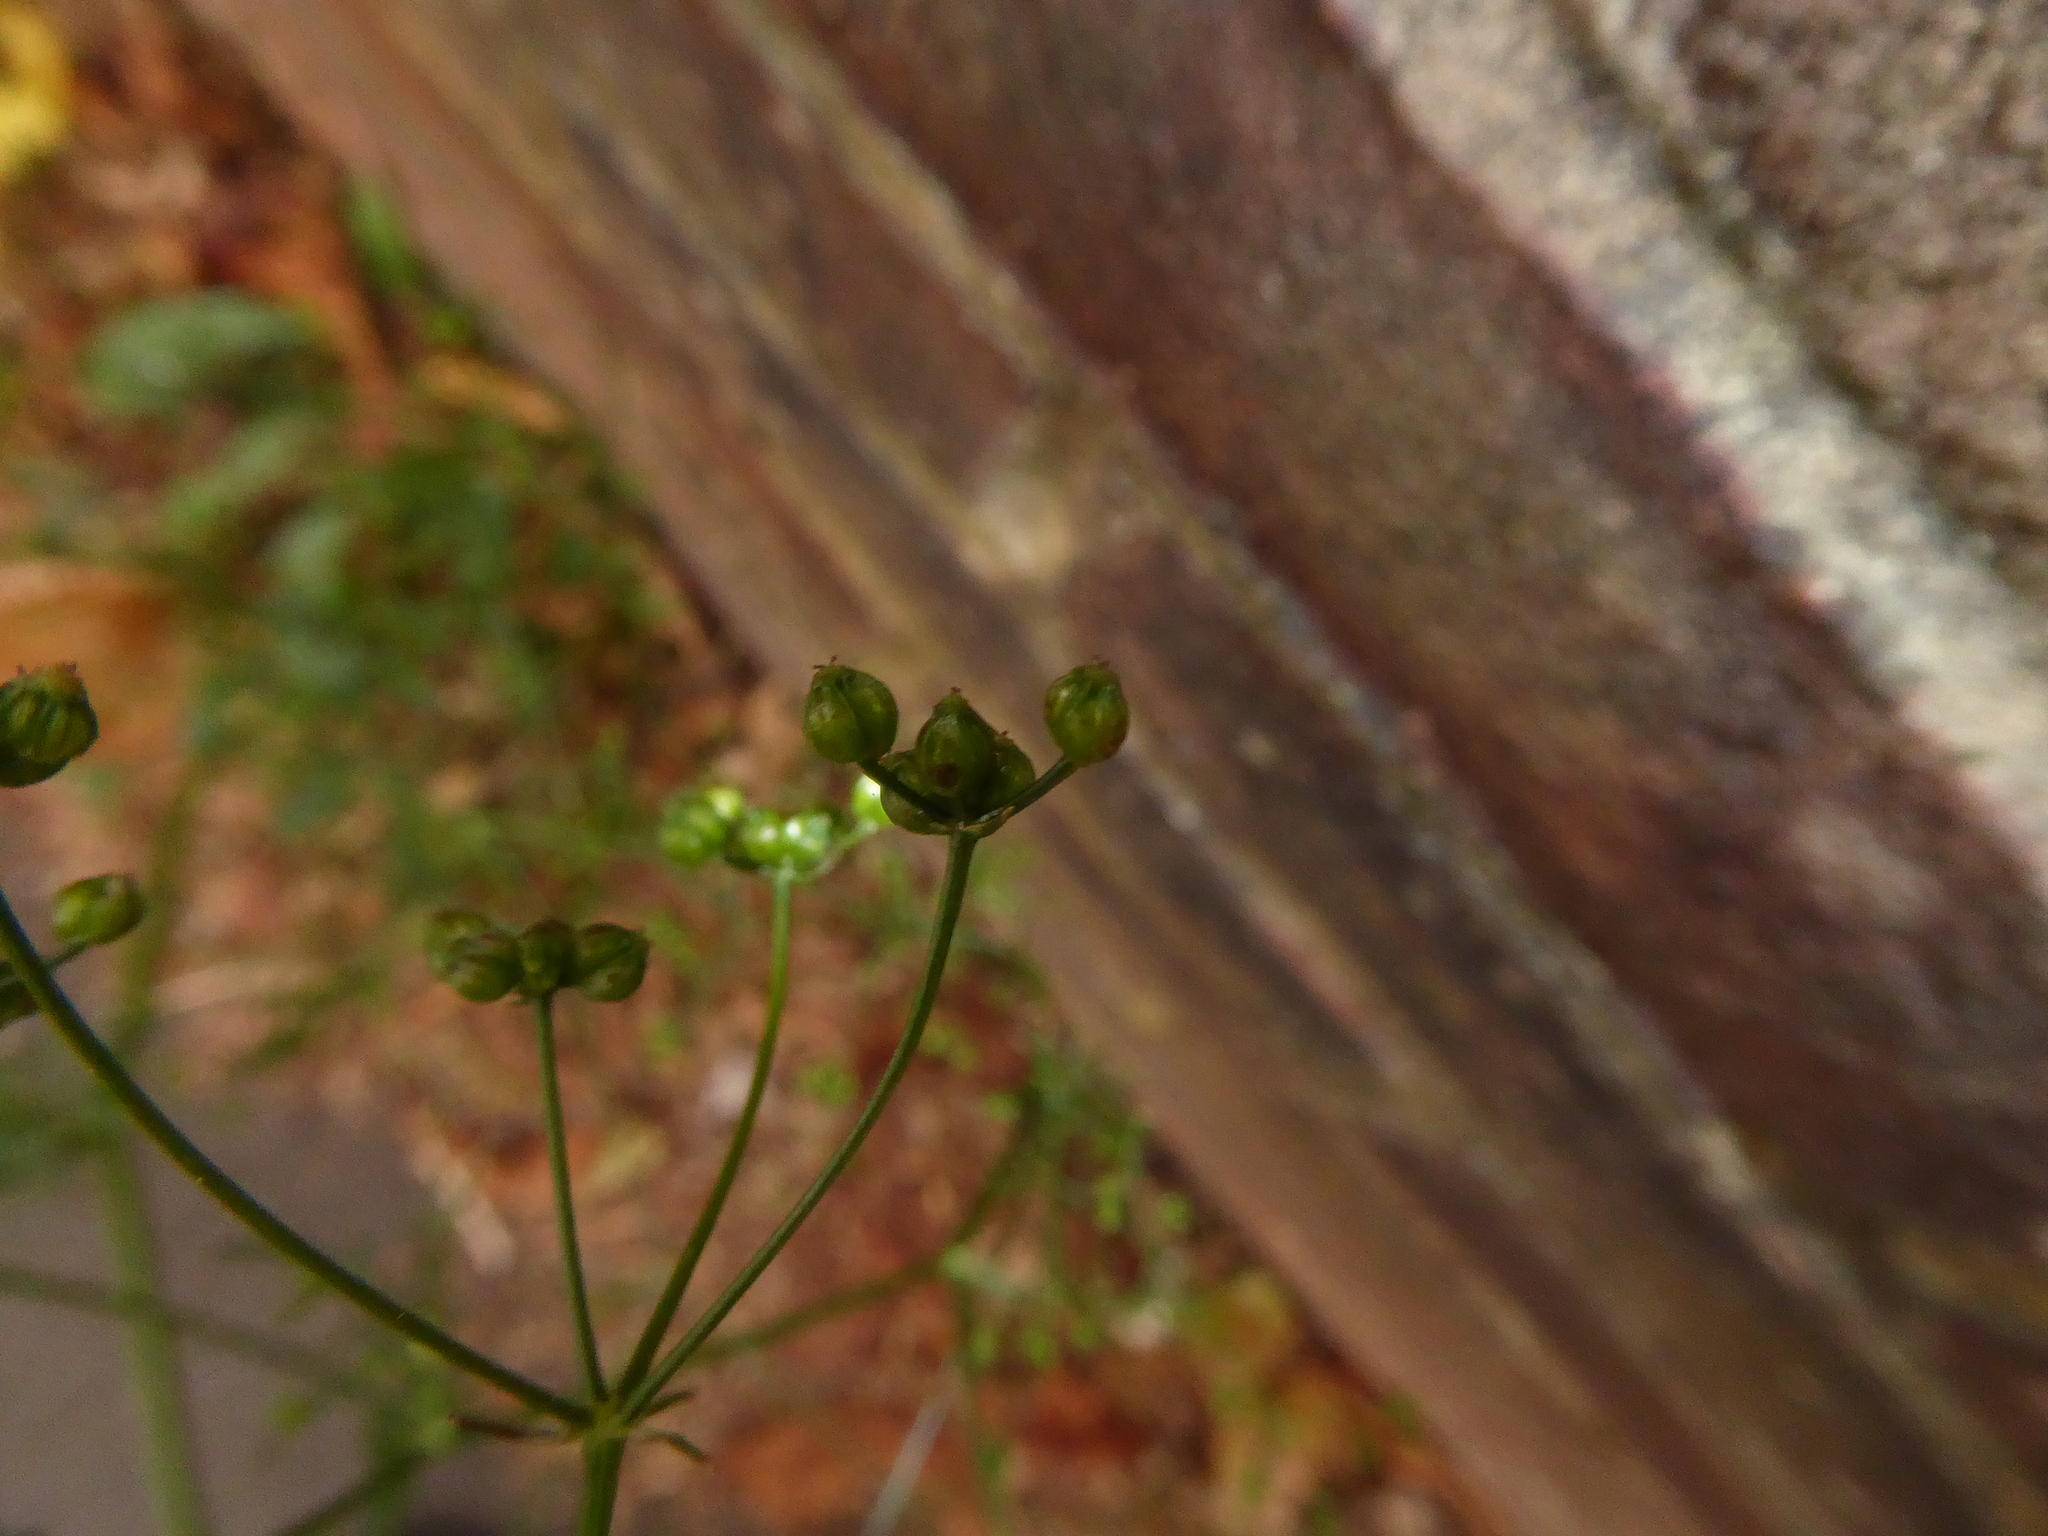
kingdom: Plantae
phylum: Tracheophyta
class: Magnoliopsida
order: Apiales
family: Apiaceae
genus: Sison
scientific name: Sison amomum
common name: Stone-parsley
